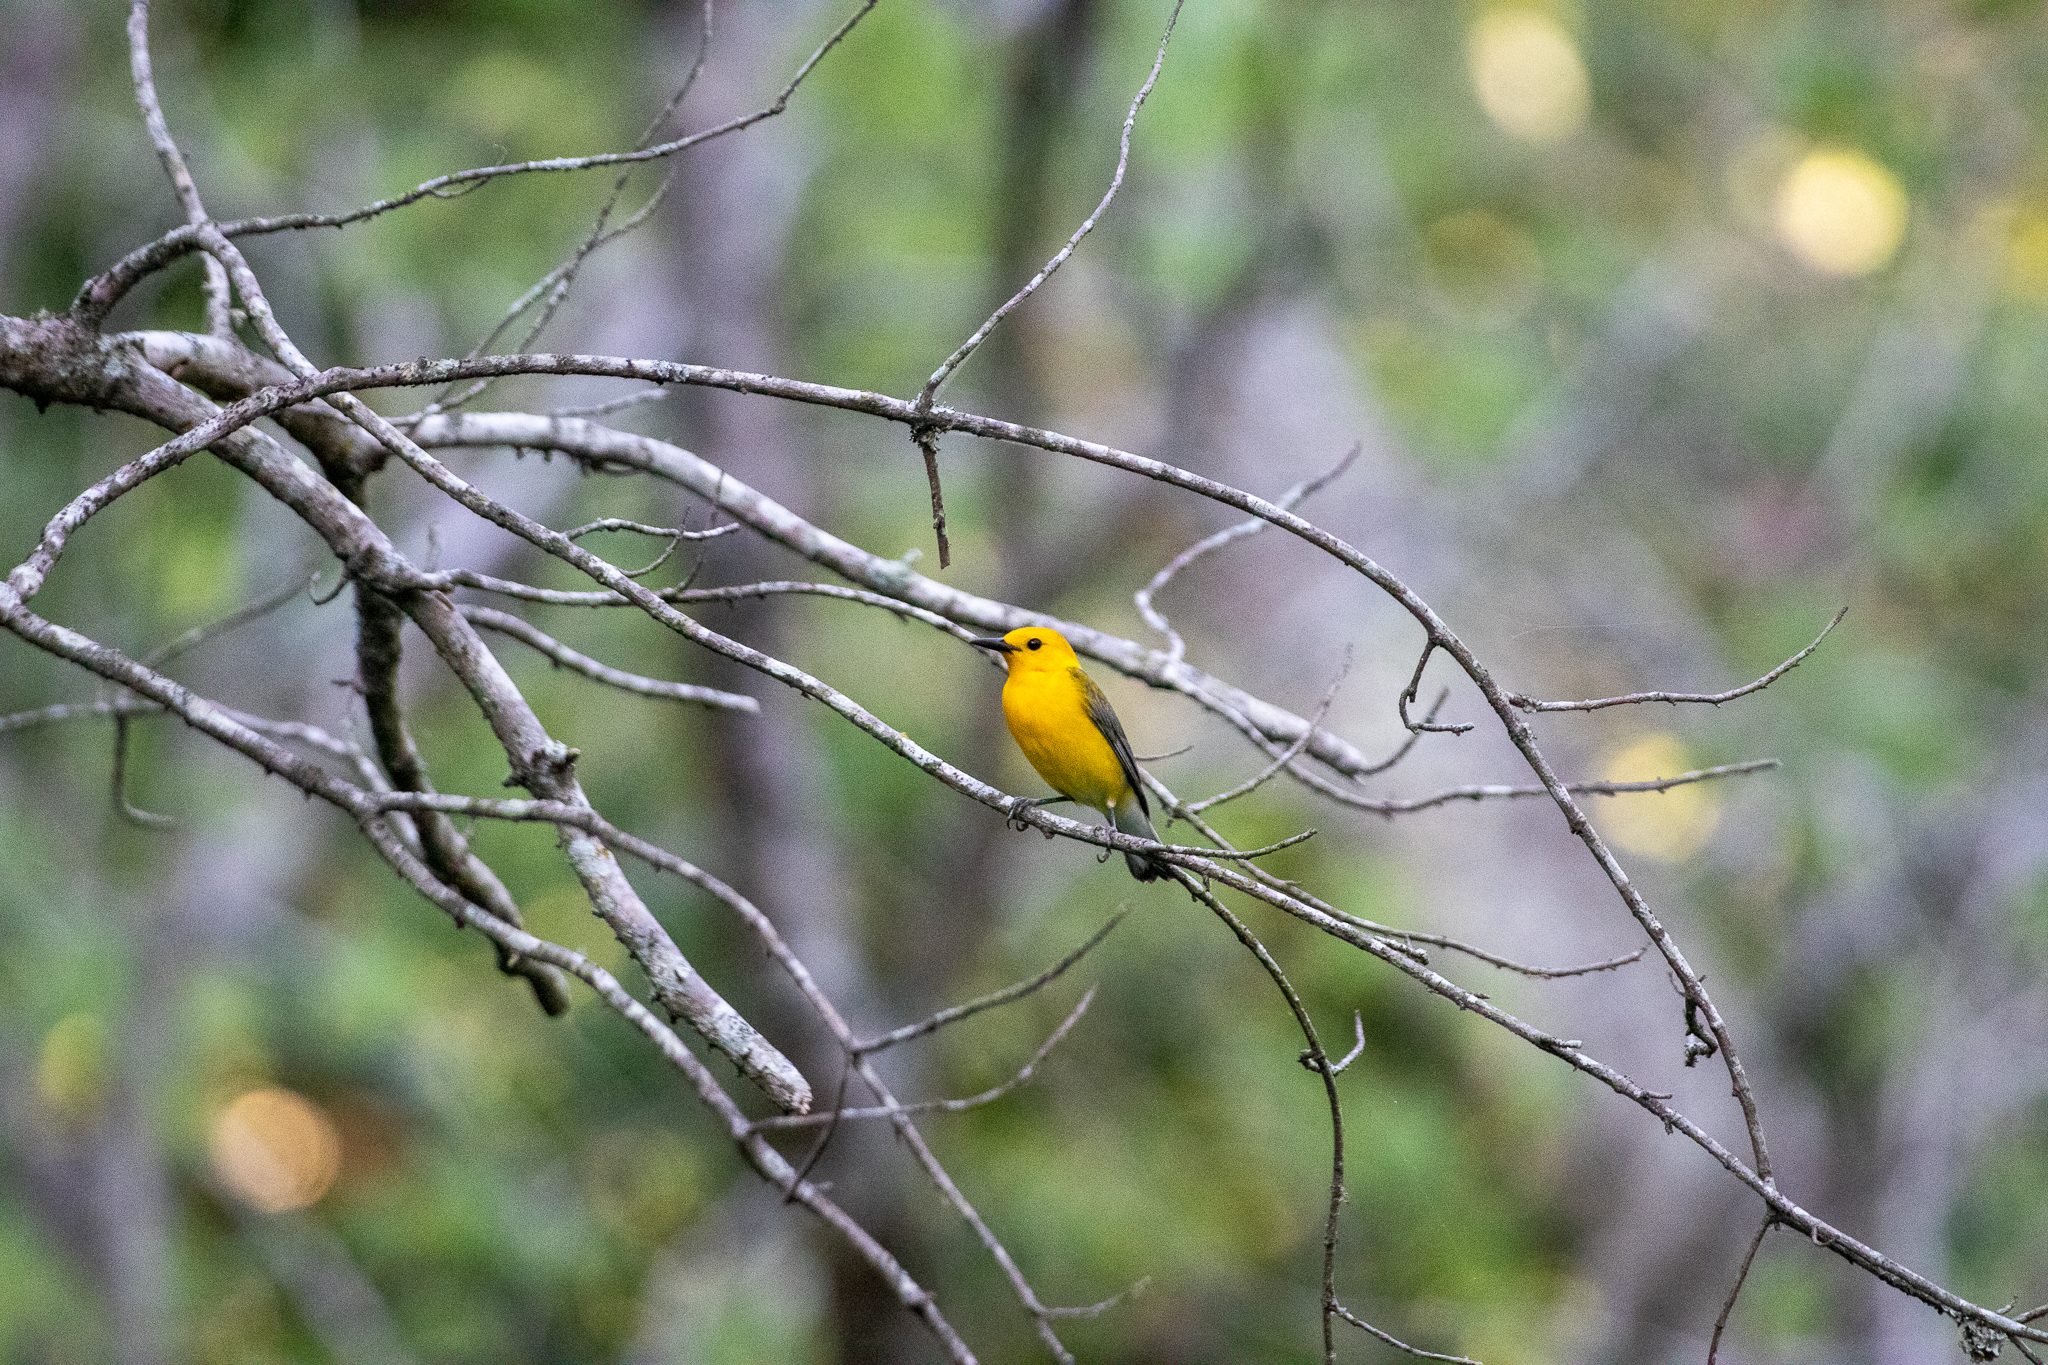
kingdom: Animalia
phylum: Chordata
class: Aves
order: Passeriformes
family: Parulidae
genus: Protonotaria
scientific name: Protonotaria citrea
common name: Prothonotary warbler
